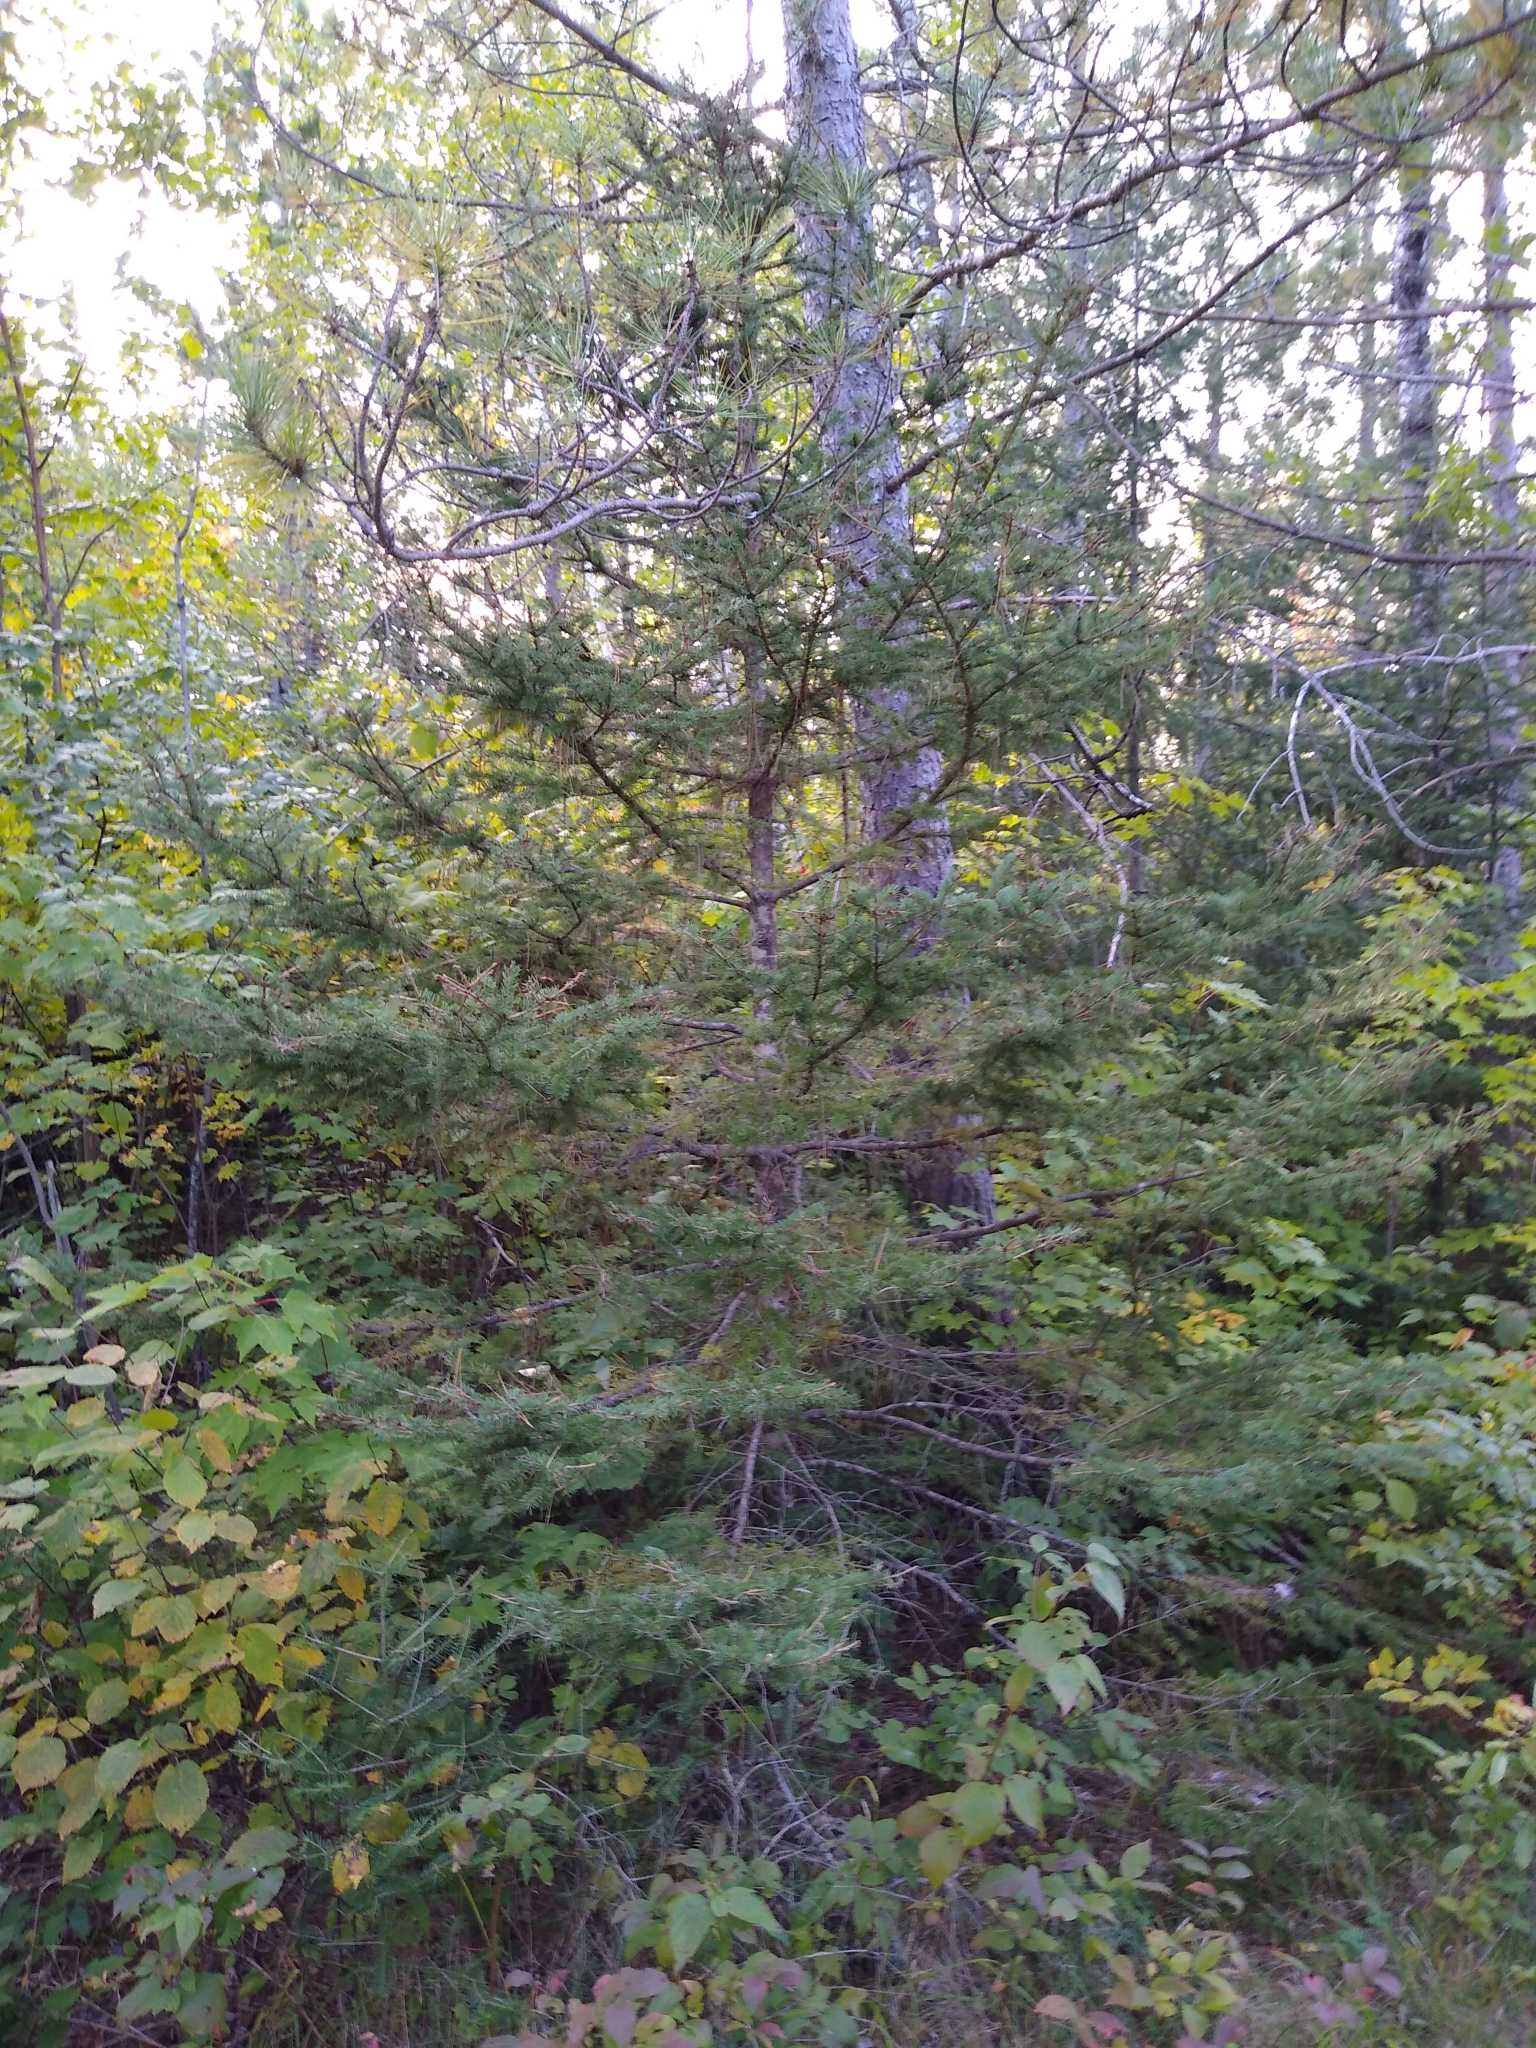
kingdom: Plantae
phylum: Tracheophyta
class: Pinopsida
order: Pinales
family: Pinaceae
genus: Picea
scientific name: Picea glauca
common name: White spruce
